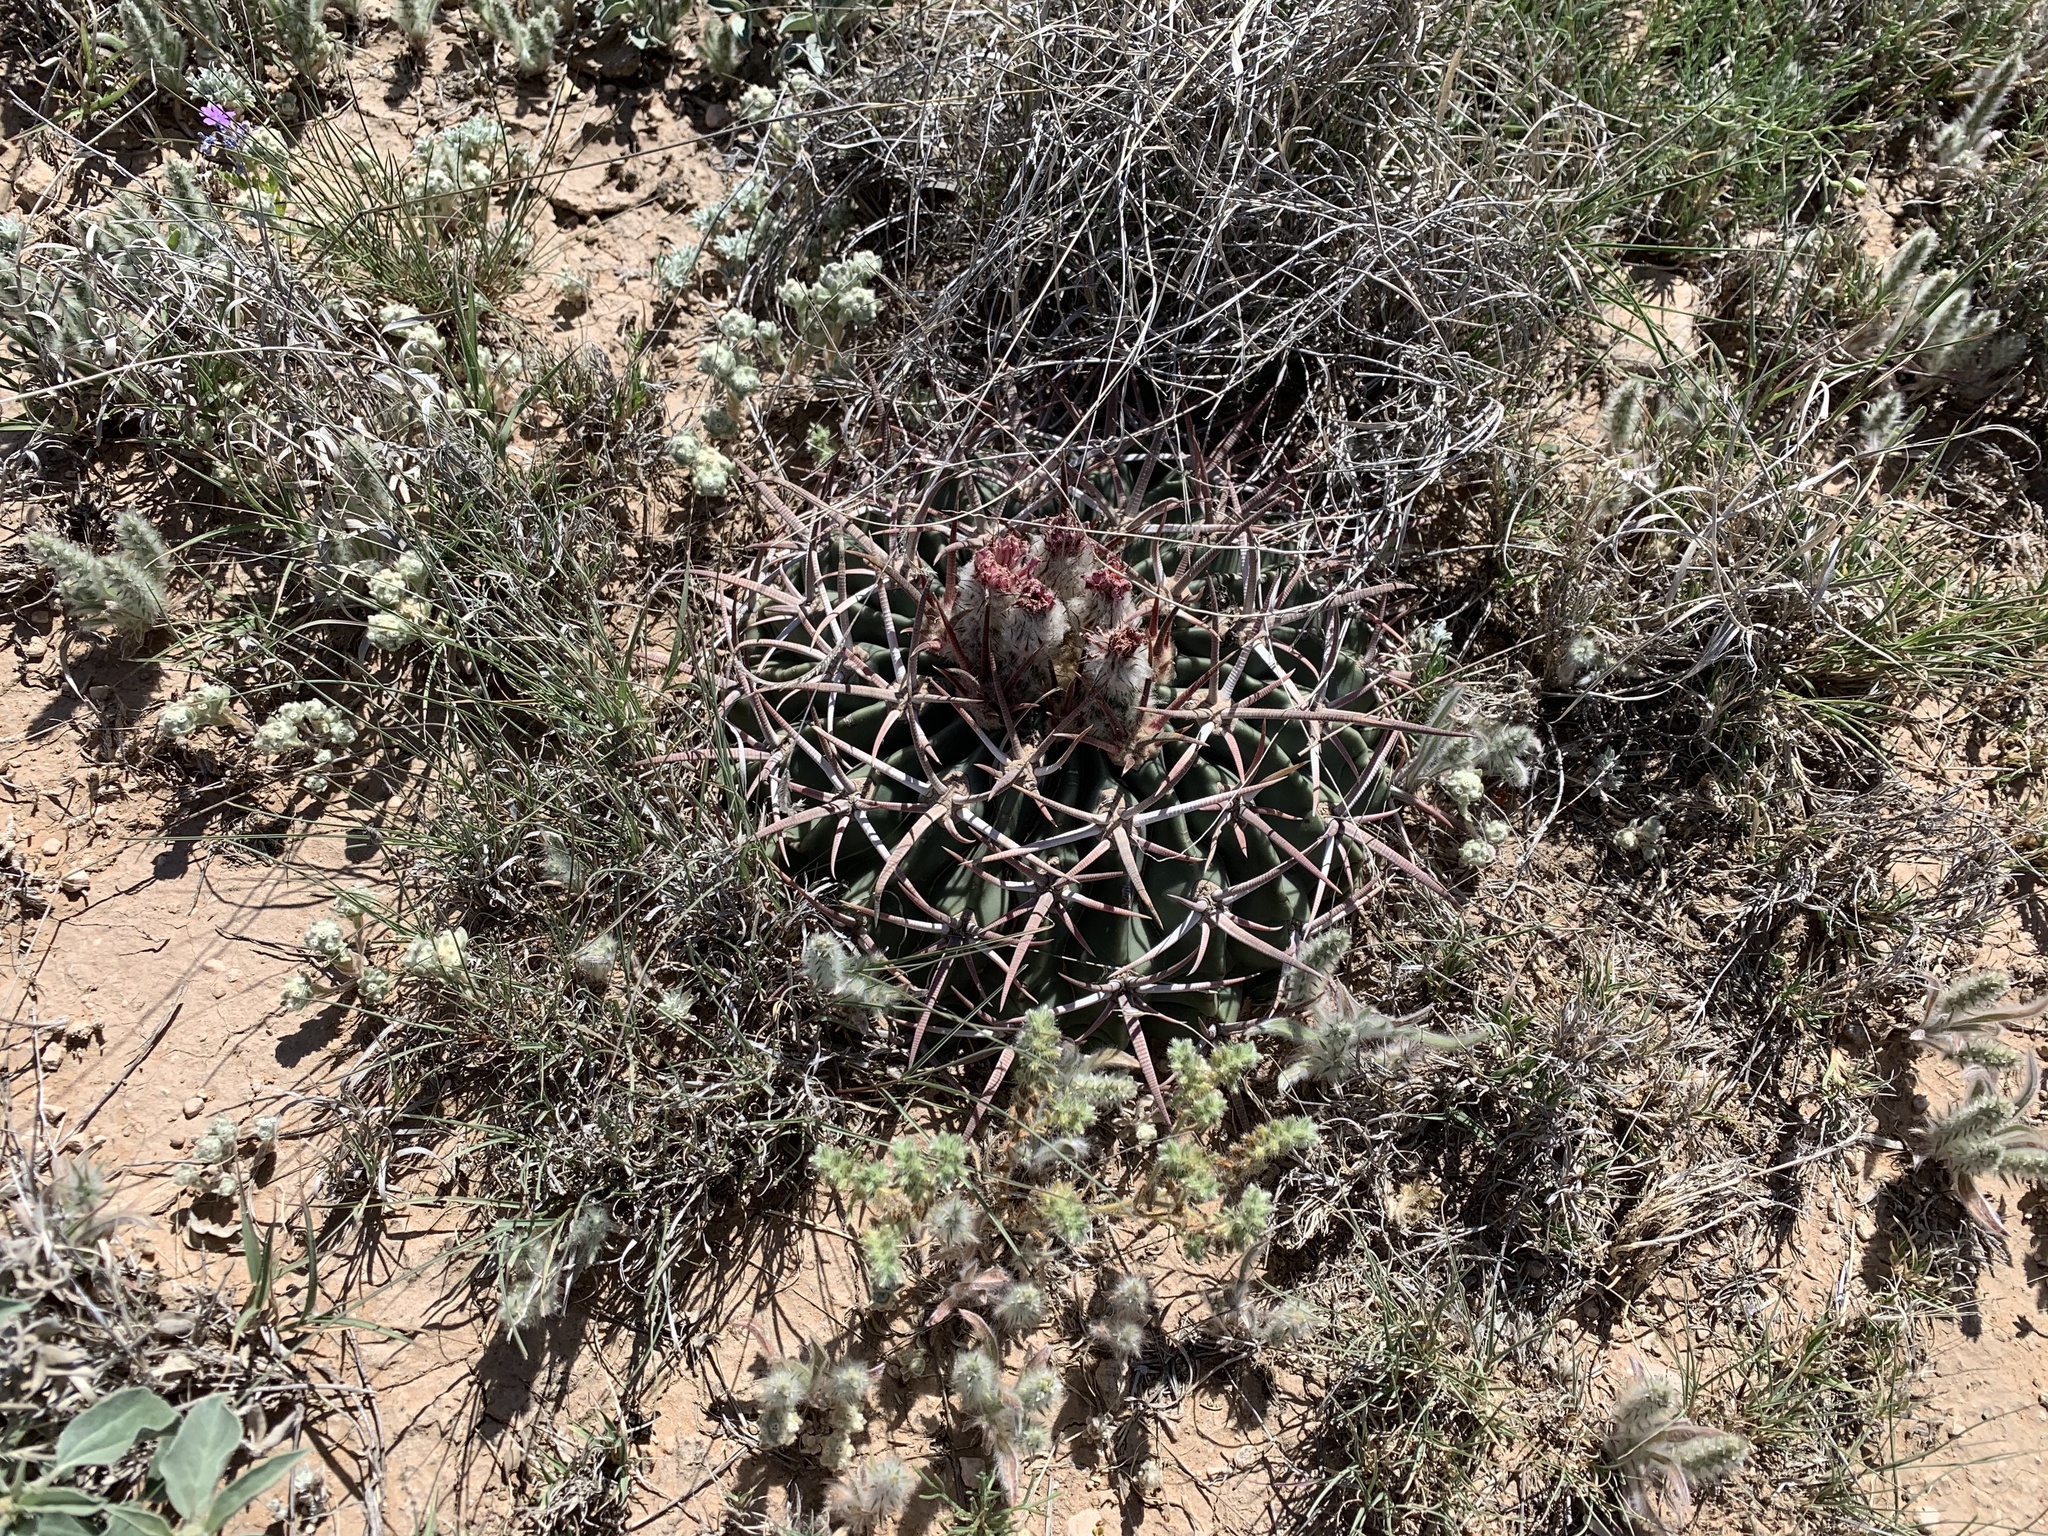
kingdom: Plantae
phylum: Tracheophyta
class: Magnoliopsida
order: Caryophyllales
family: Cactaceae
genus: Echinocactus
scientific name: Echinocactus texensis
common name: Devil's pincushion
